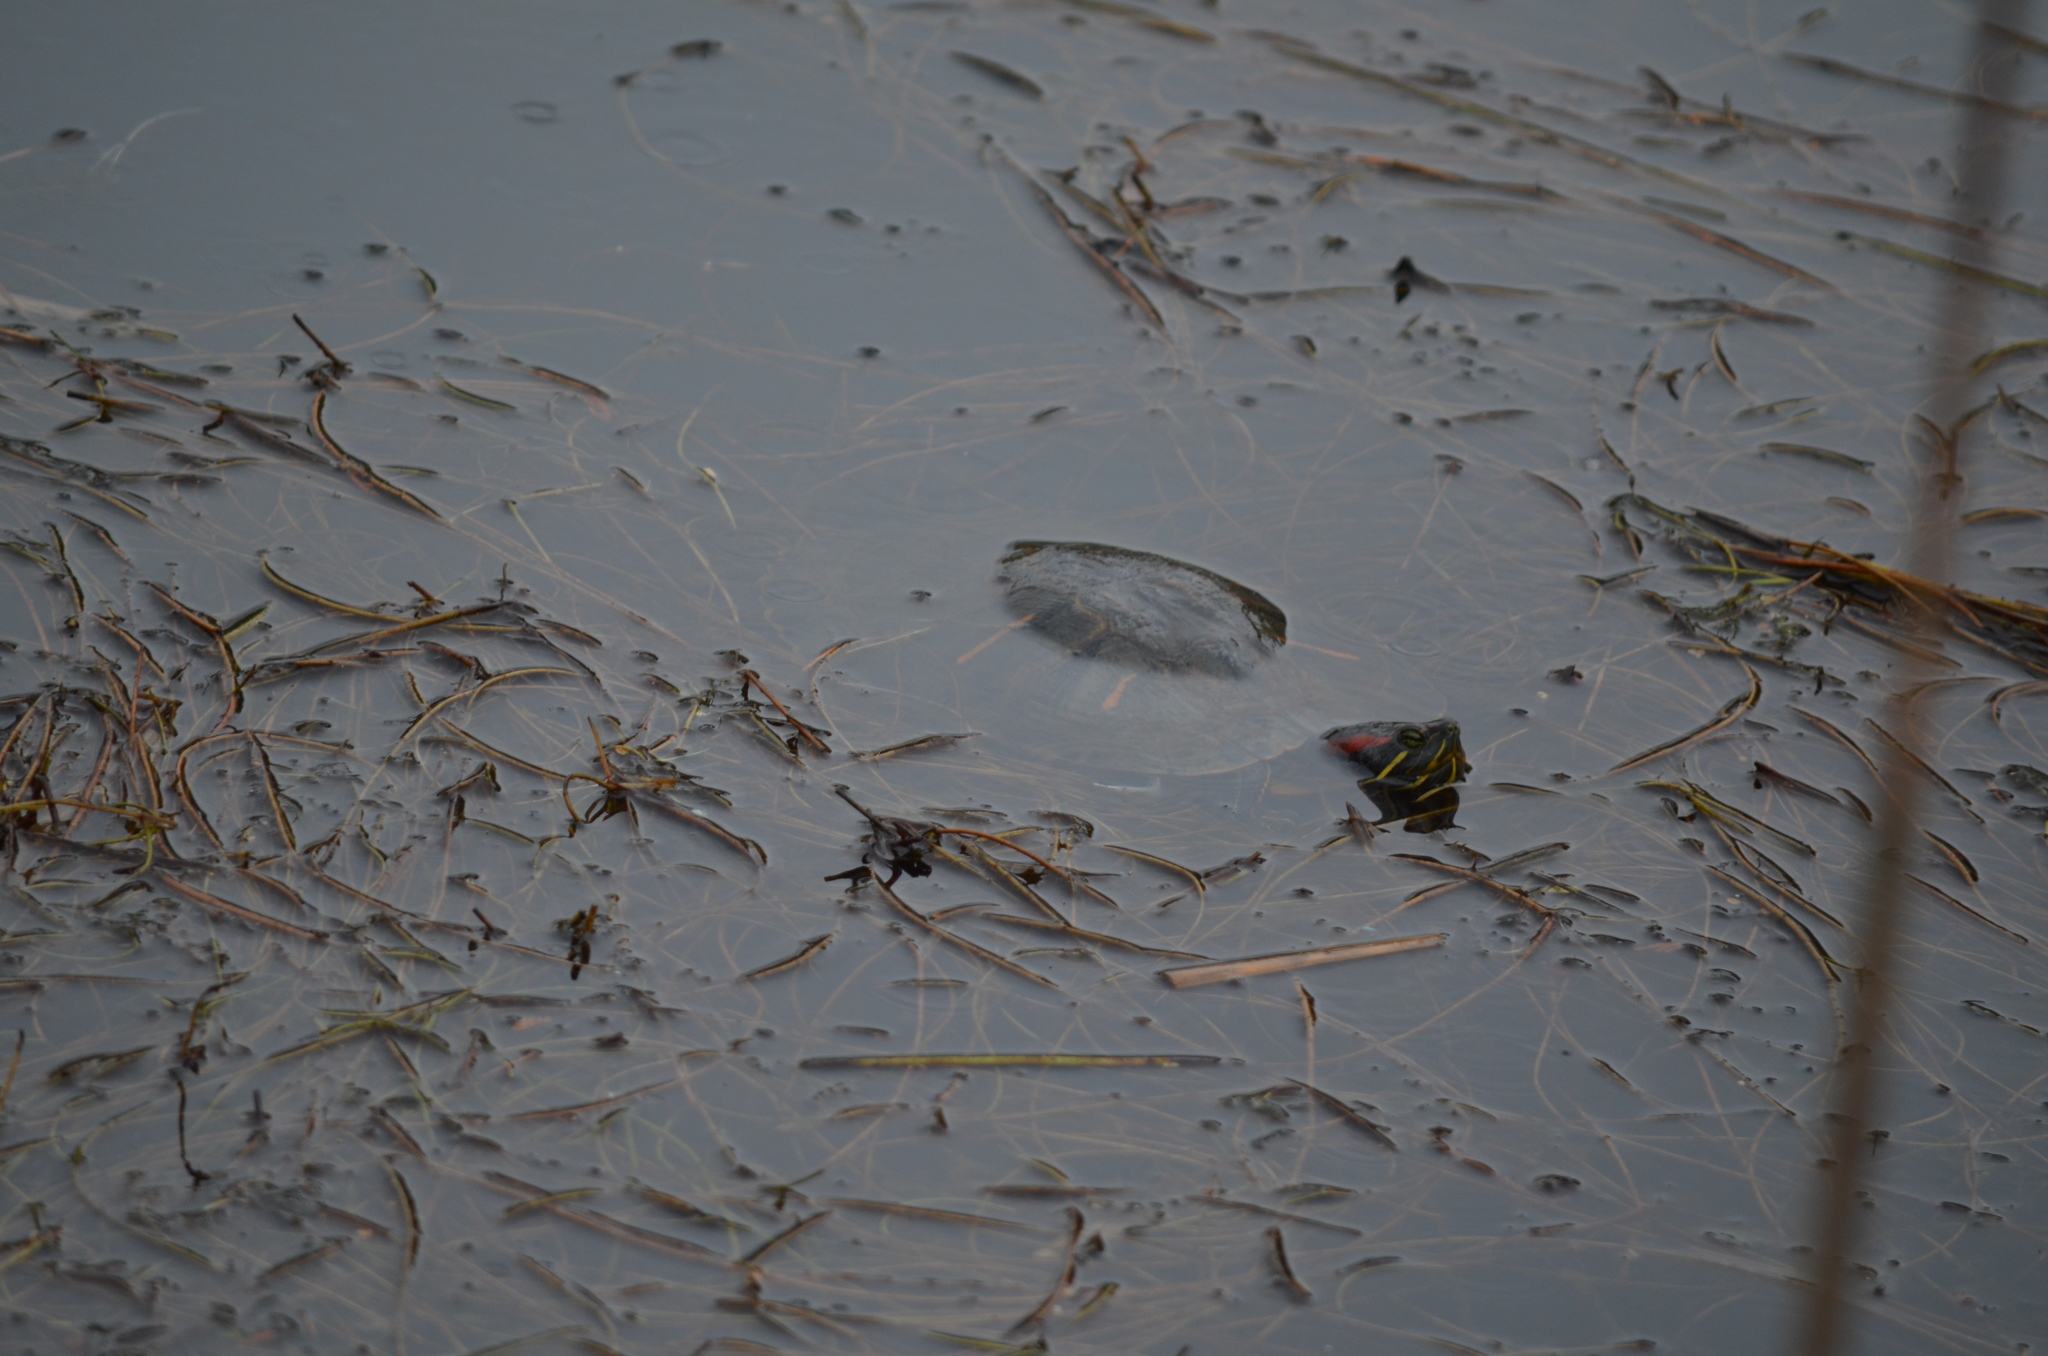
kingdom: Animalia
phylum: Chordata
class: Testudines
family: Emydidae
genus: Trachemys
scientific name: Trachemys scripta
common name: Slider
